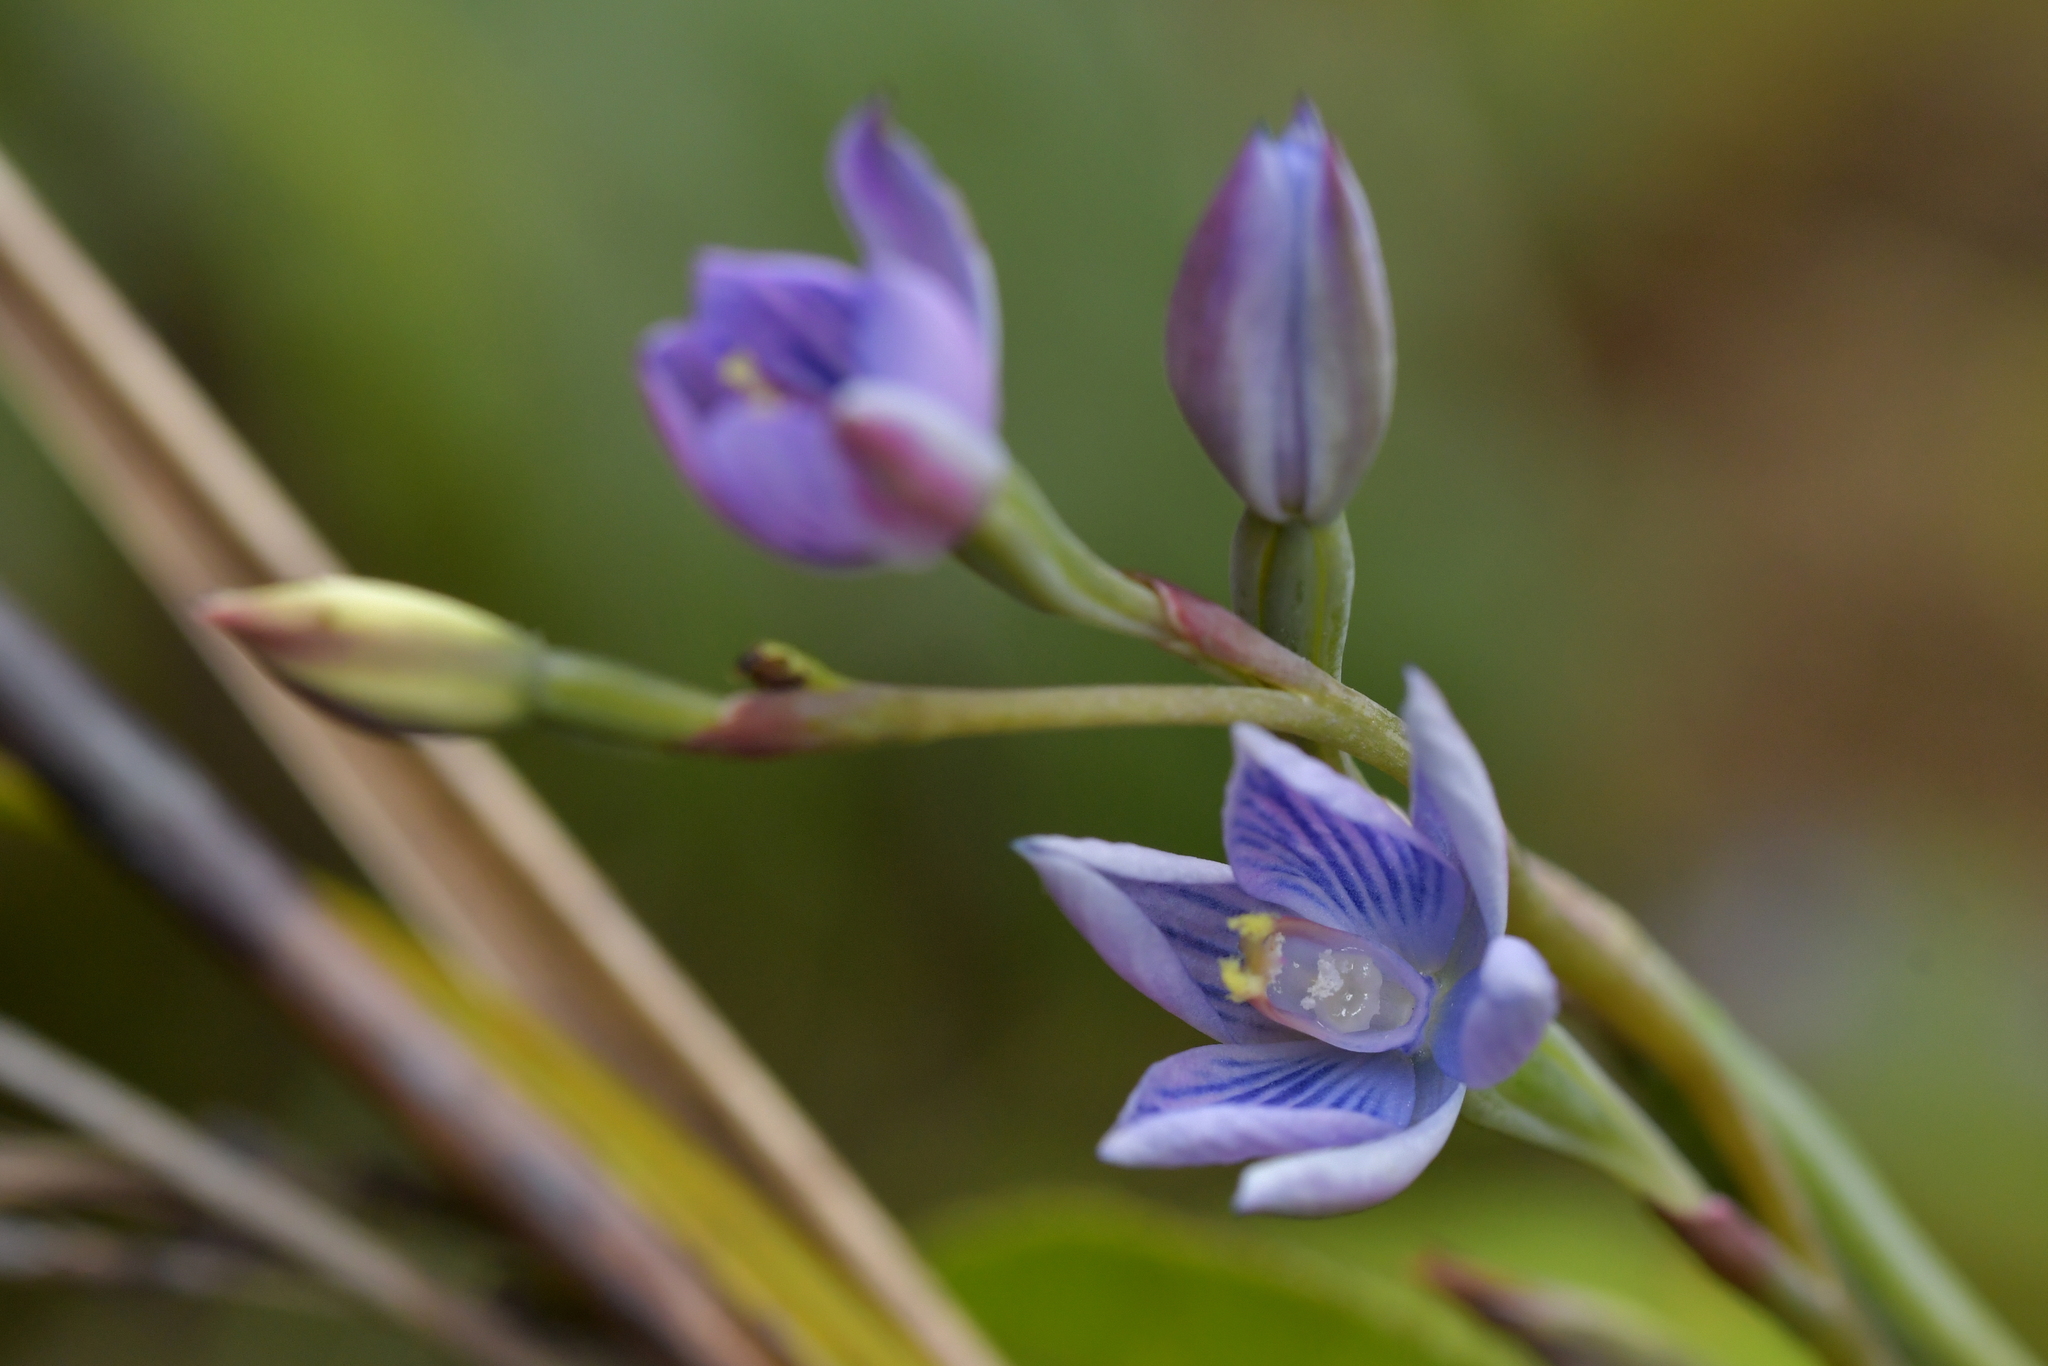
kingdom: Plantae
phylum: Tracheophyta
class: Liliopsida
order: Asparagales
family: Orchidaceae
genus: Thelymitra
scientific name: Thelymitra pulchella
